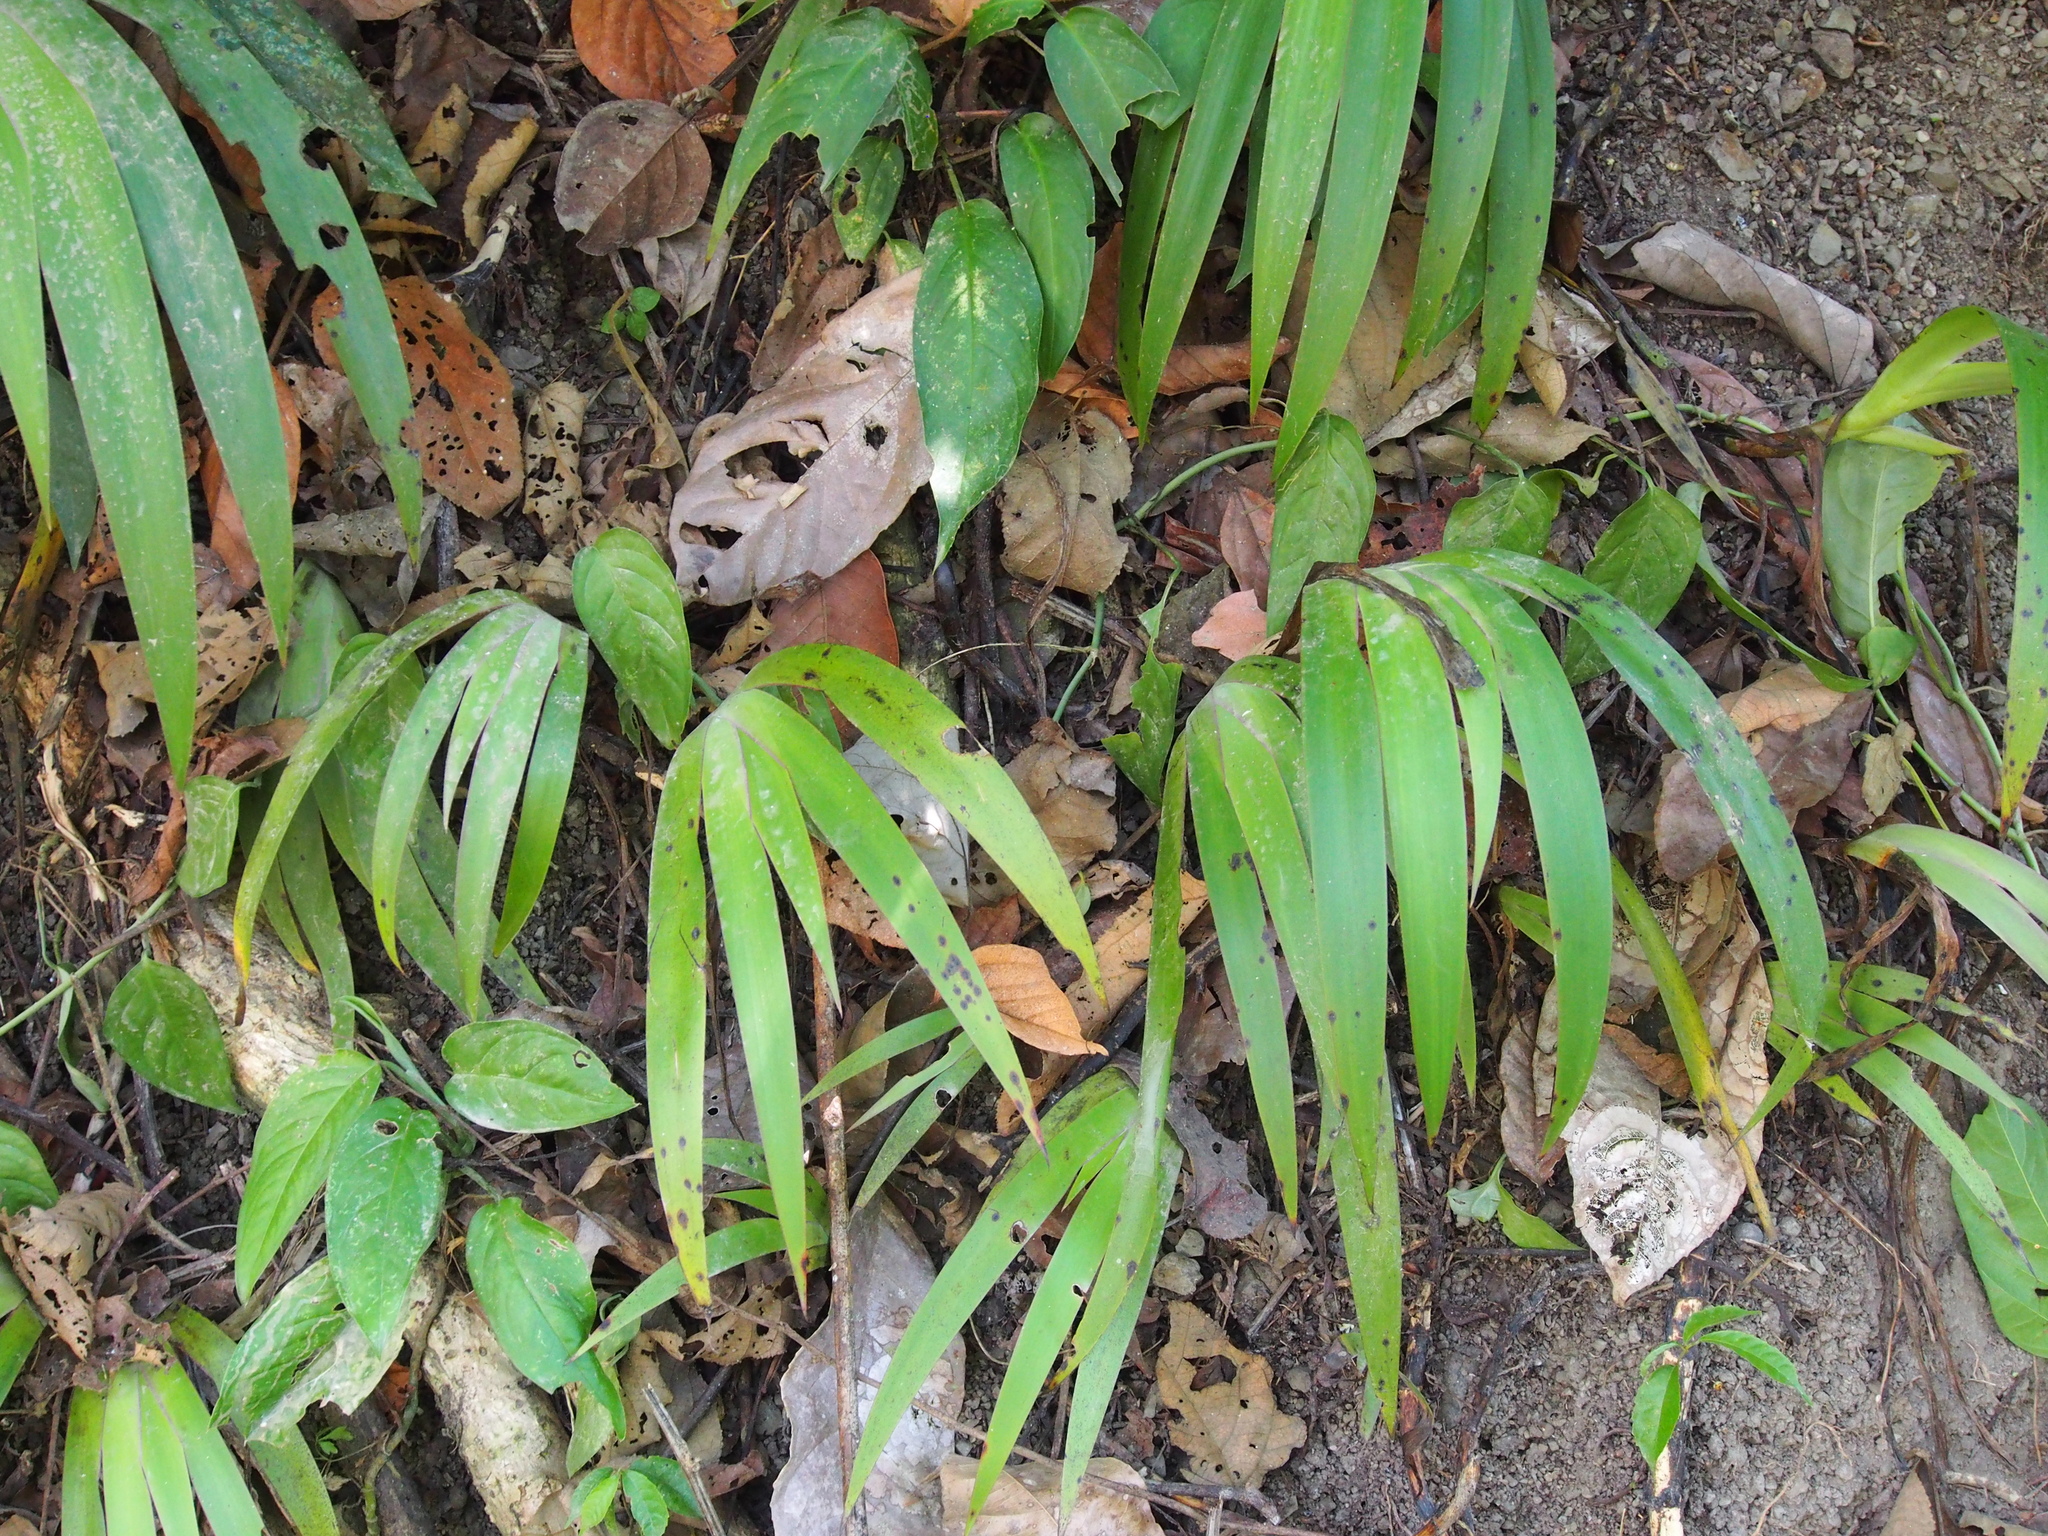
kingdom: Plantae
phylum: Tracheophyta
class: Liliopsida
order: Commelinales
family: Haemodoraceae
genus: Xiphidium
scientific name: Xiphidium caeruleum
